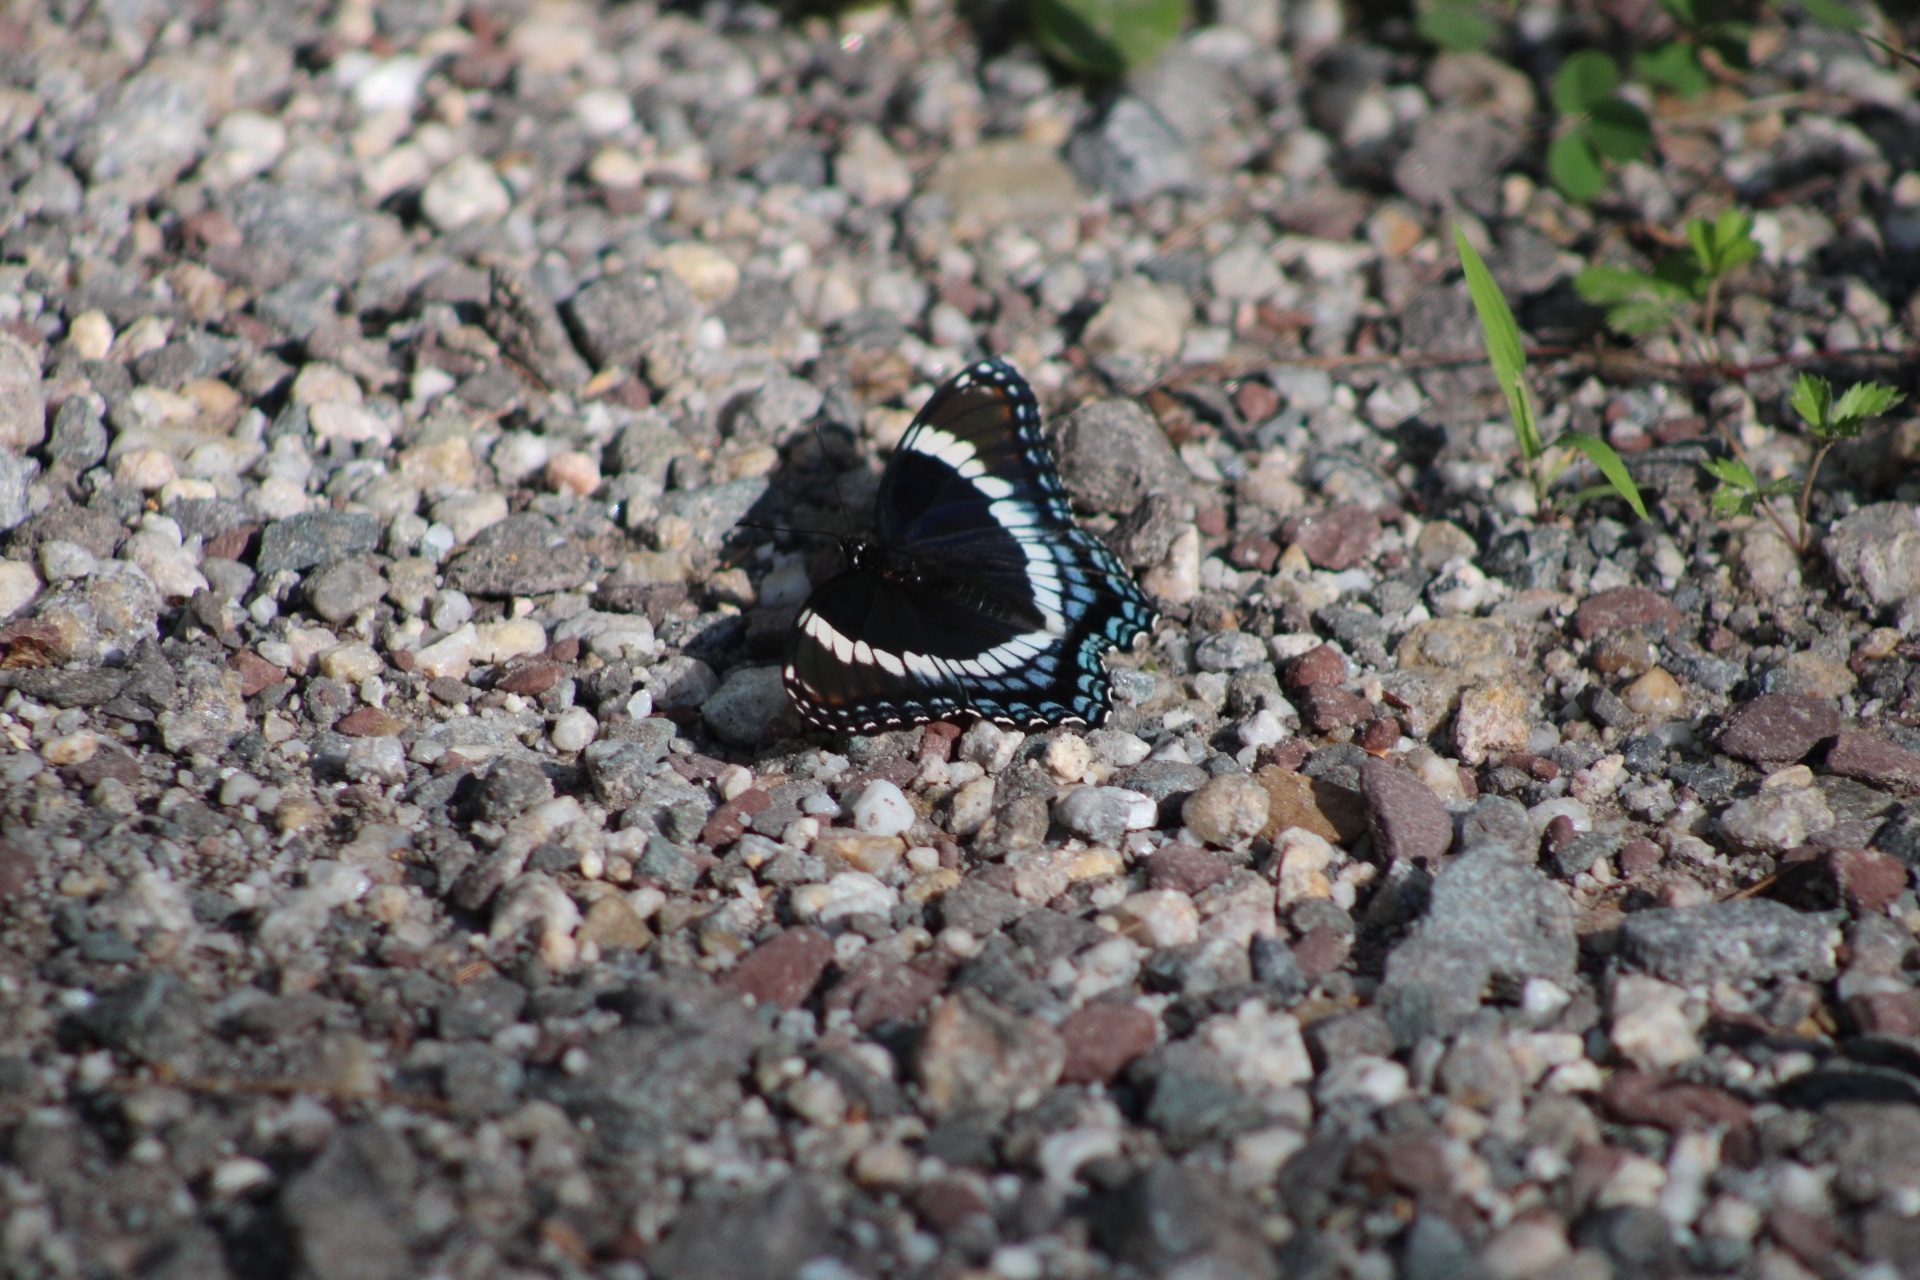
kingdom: Animalia
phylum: Arthropoda
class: Insecta
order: Lepidoptera
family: Nymphalidae
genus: Limenitis
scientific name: Limenitis arthemis
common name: Red-spotted admiral
